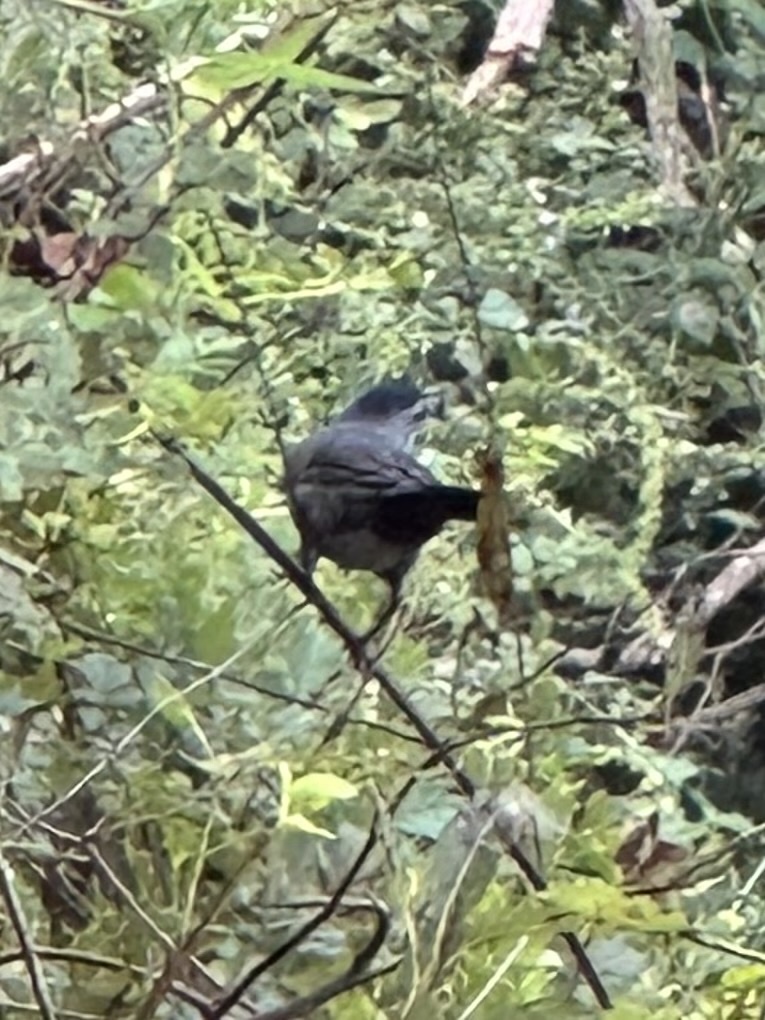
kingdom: Animalia
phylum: Chordata
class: Aves
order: Passeriformes
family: Mimidae
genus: Dumetella
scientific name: Dumetella carolinensis
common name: Gray catbird
